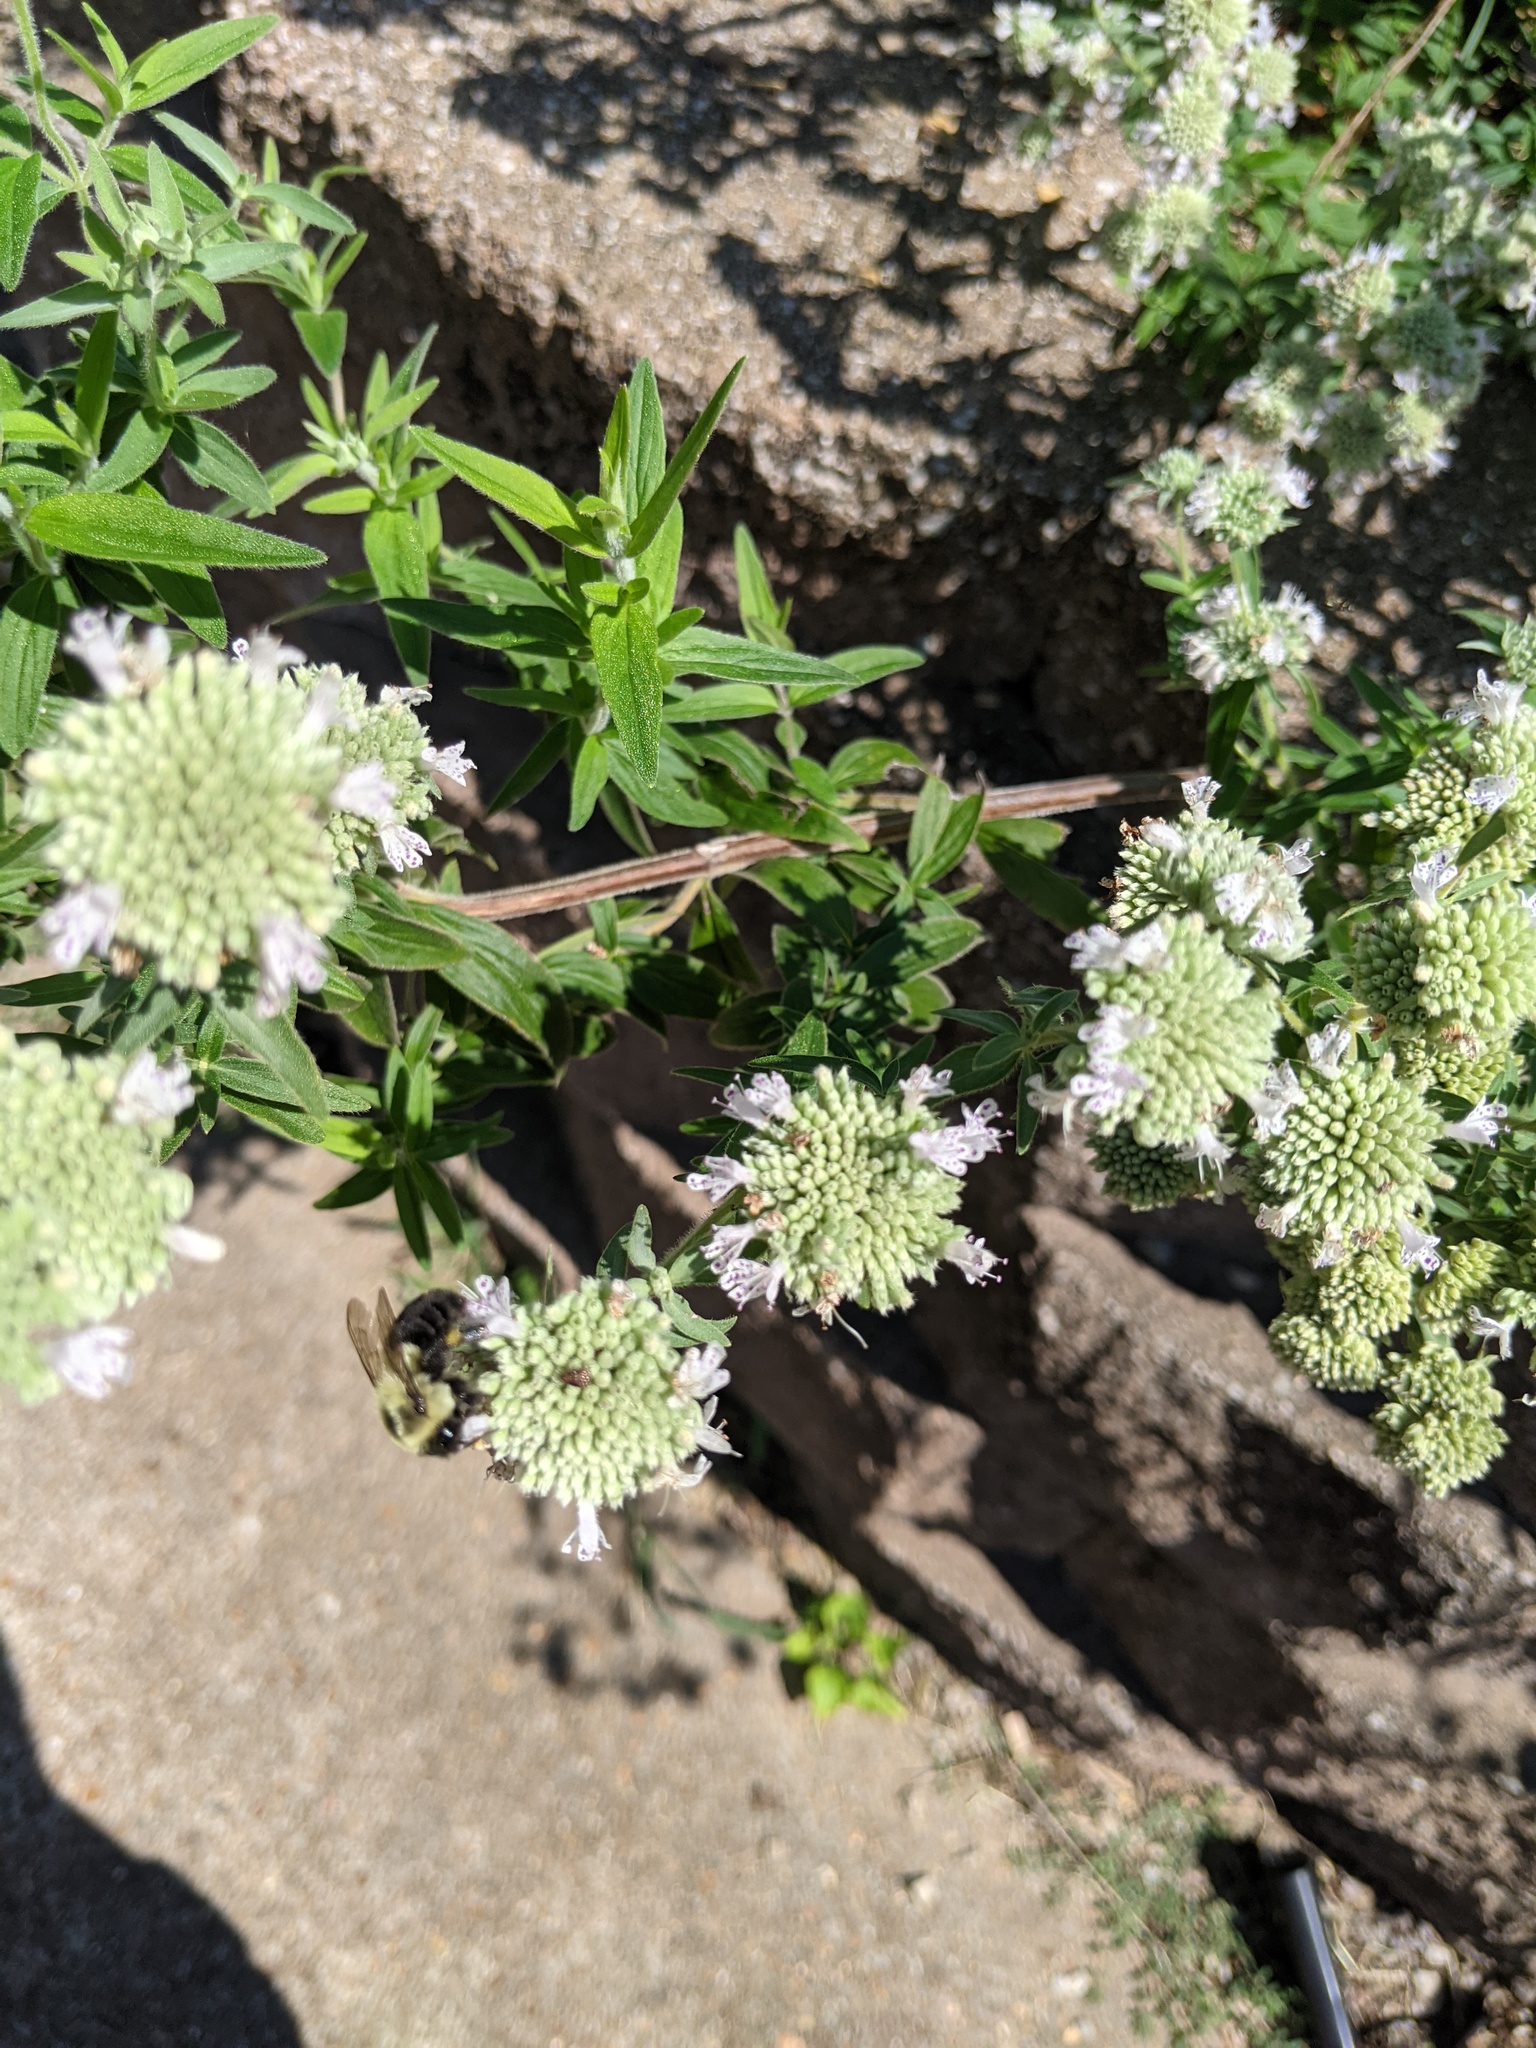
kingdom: Animalia
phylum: Arthropoda
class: Insecta
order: Hymenoptera
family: Apidae
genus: Bombus
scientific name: Bombus impatiens
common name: Common eastern bumble bee
